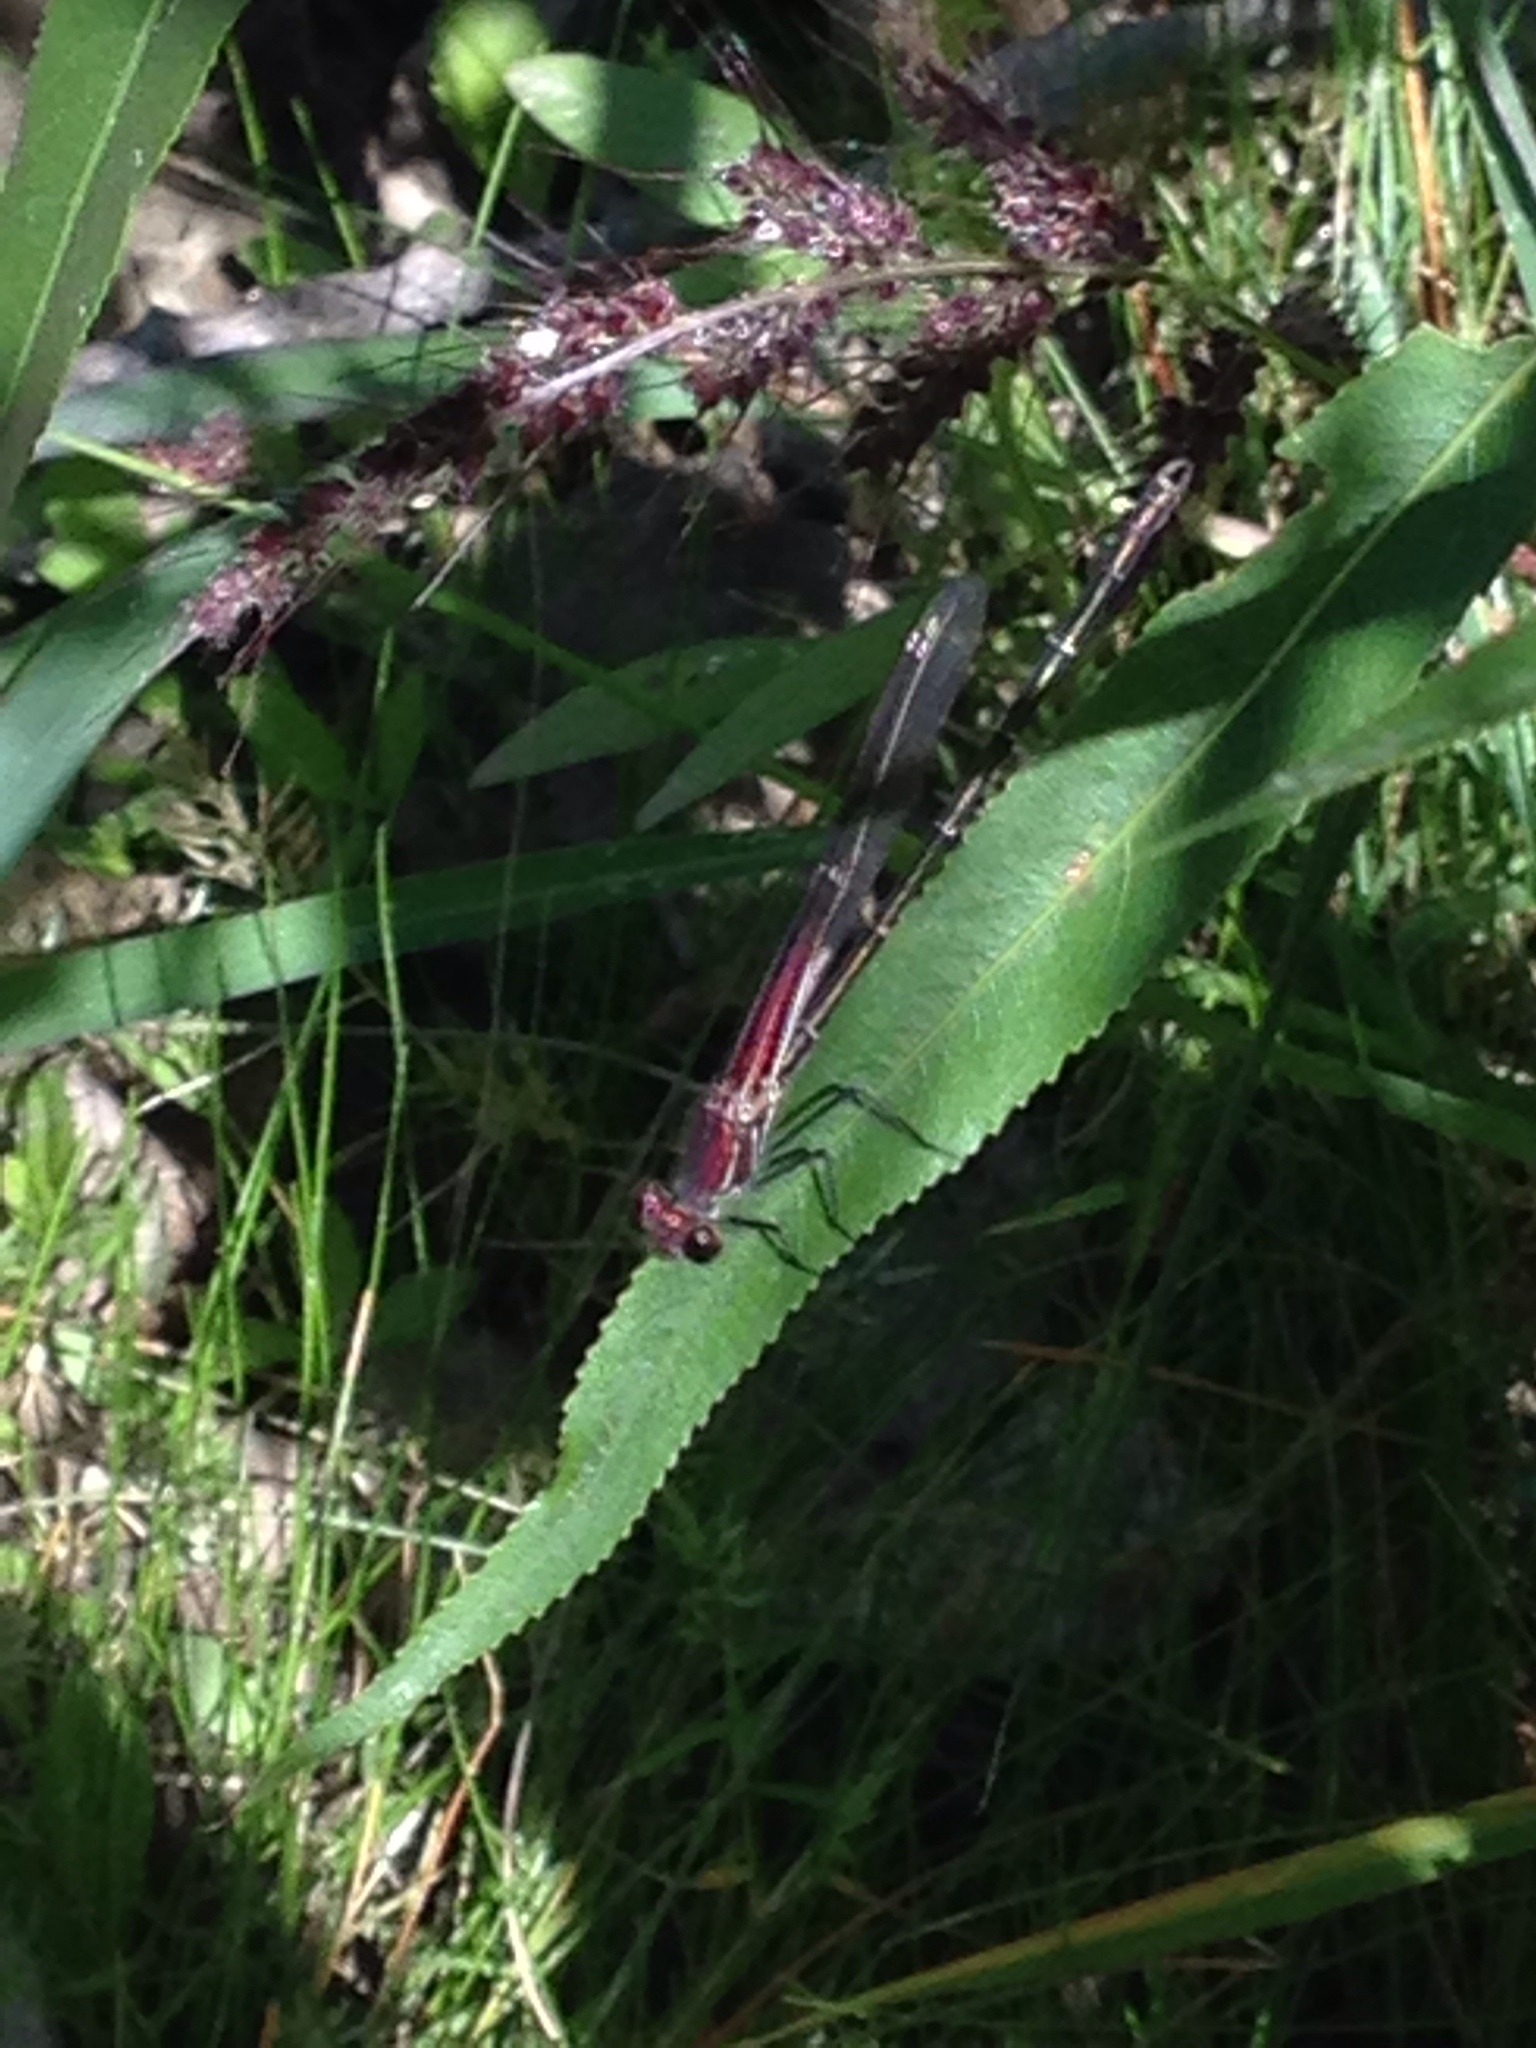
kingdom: Animalia
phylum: Arthropoda
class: Insecta
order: Odonata
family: Calopterygidae
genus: Hetaerina
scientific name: Hetaerina americana
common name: American rubyspot
